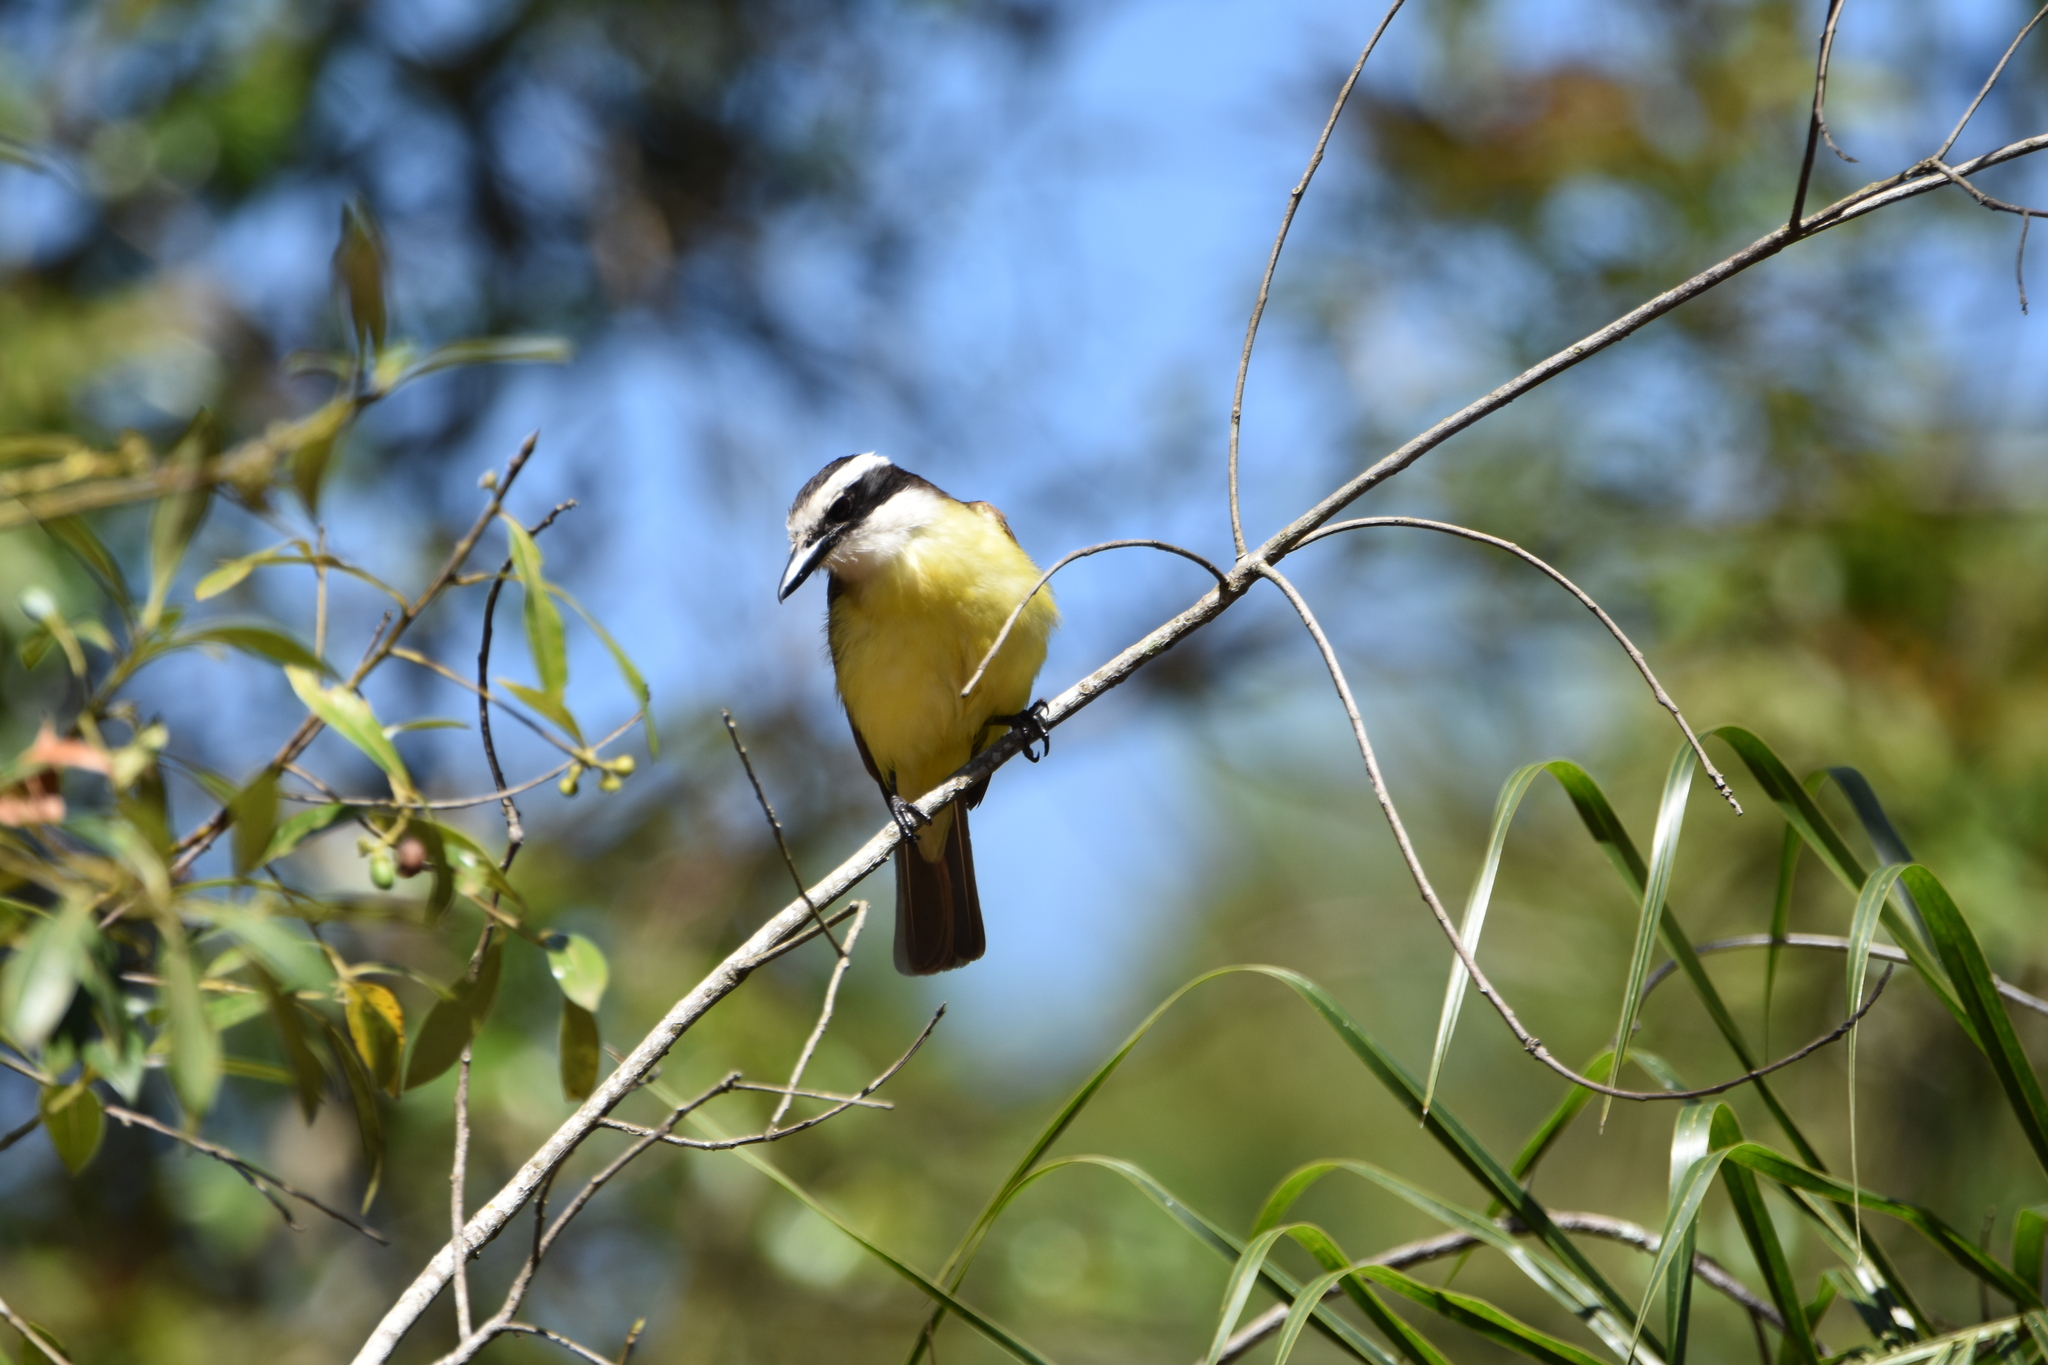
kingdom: Animalia
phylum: Chordata
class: Aves
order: Passeriformes
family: Tyrannidae
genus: Pitangus
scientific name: Pitangus sulphuratus
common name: Great kiskadee
